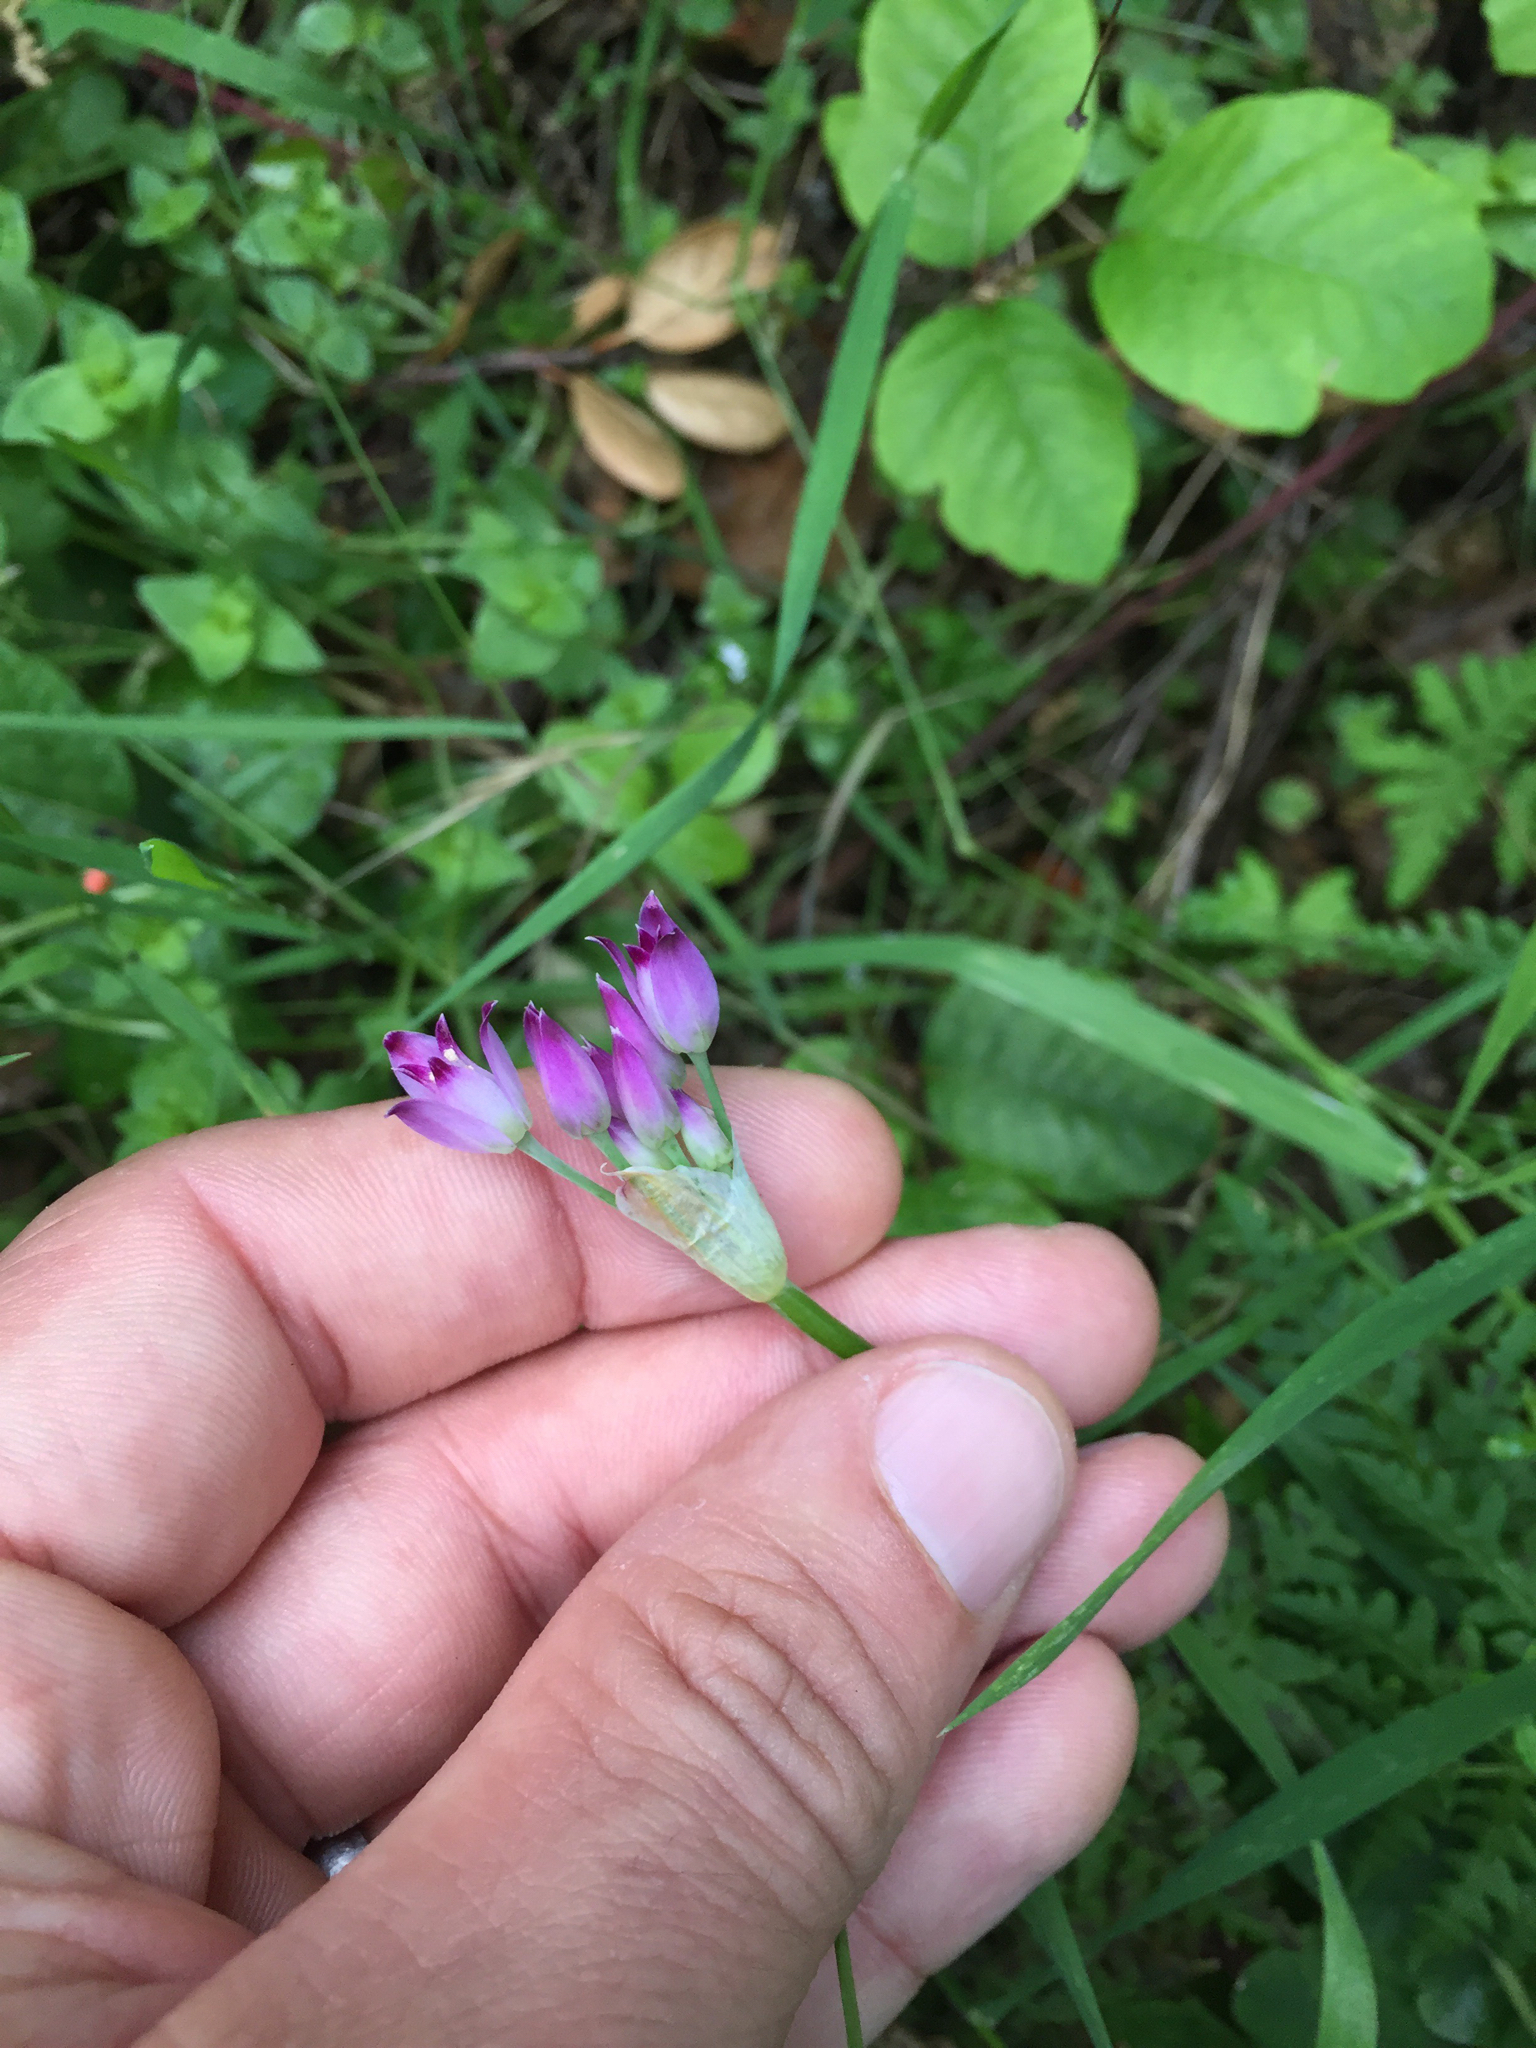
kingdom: Plantae
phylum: Tracheophyta
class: Liliopsida
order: Asparagales
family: Amaryllidaceae
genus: Allium
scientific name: Allium peninsulare
